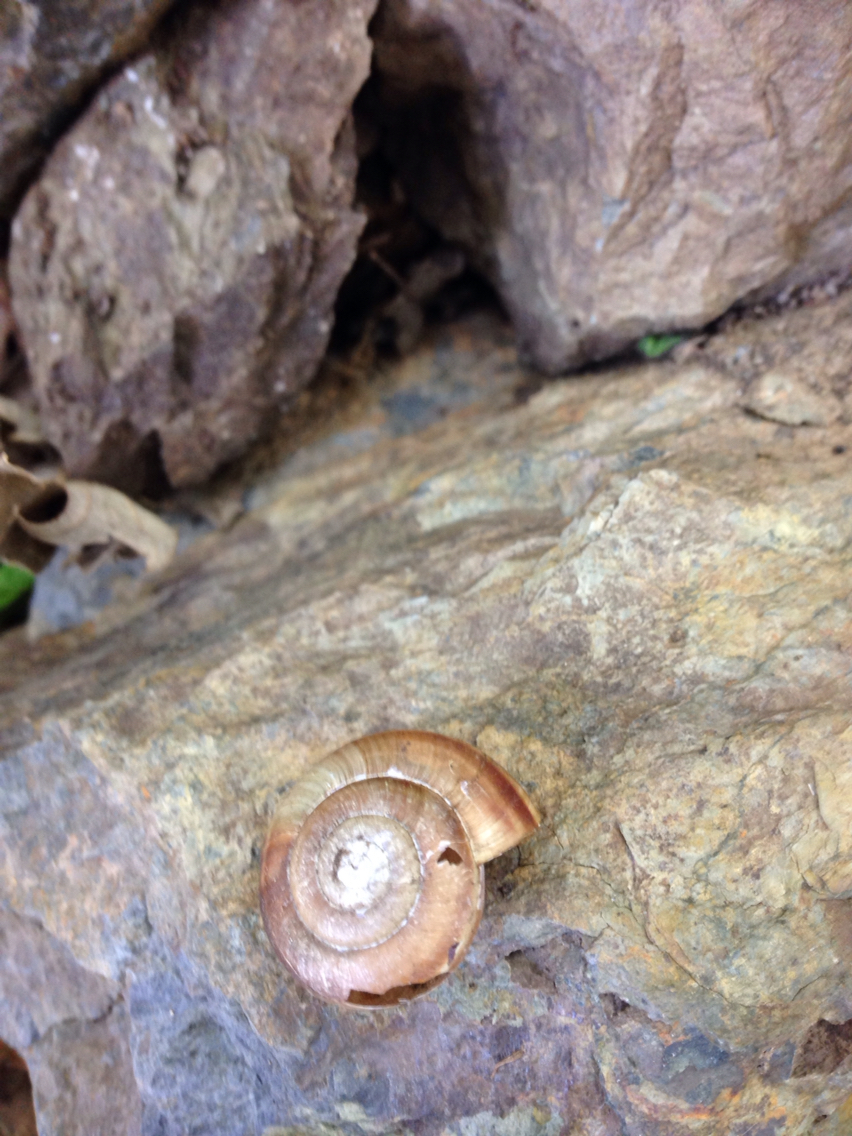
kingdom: Animalia
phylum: Mollusca
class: Gastropoda
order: Stylommatophora
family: Helicidae
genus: Campylaea
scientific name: Campylaea planospira
